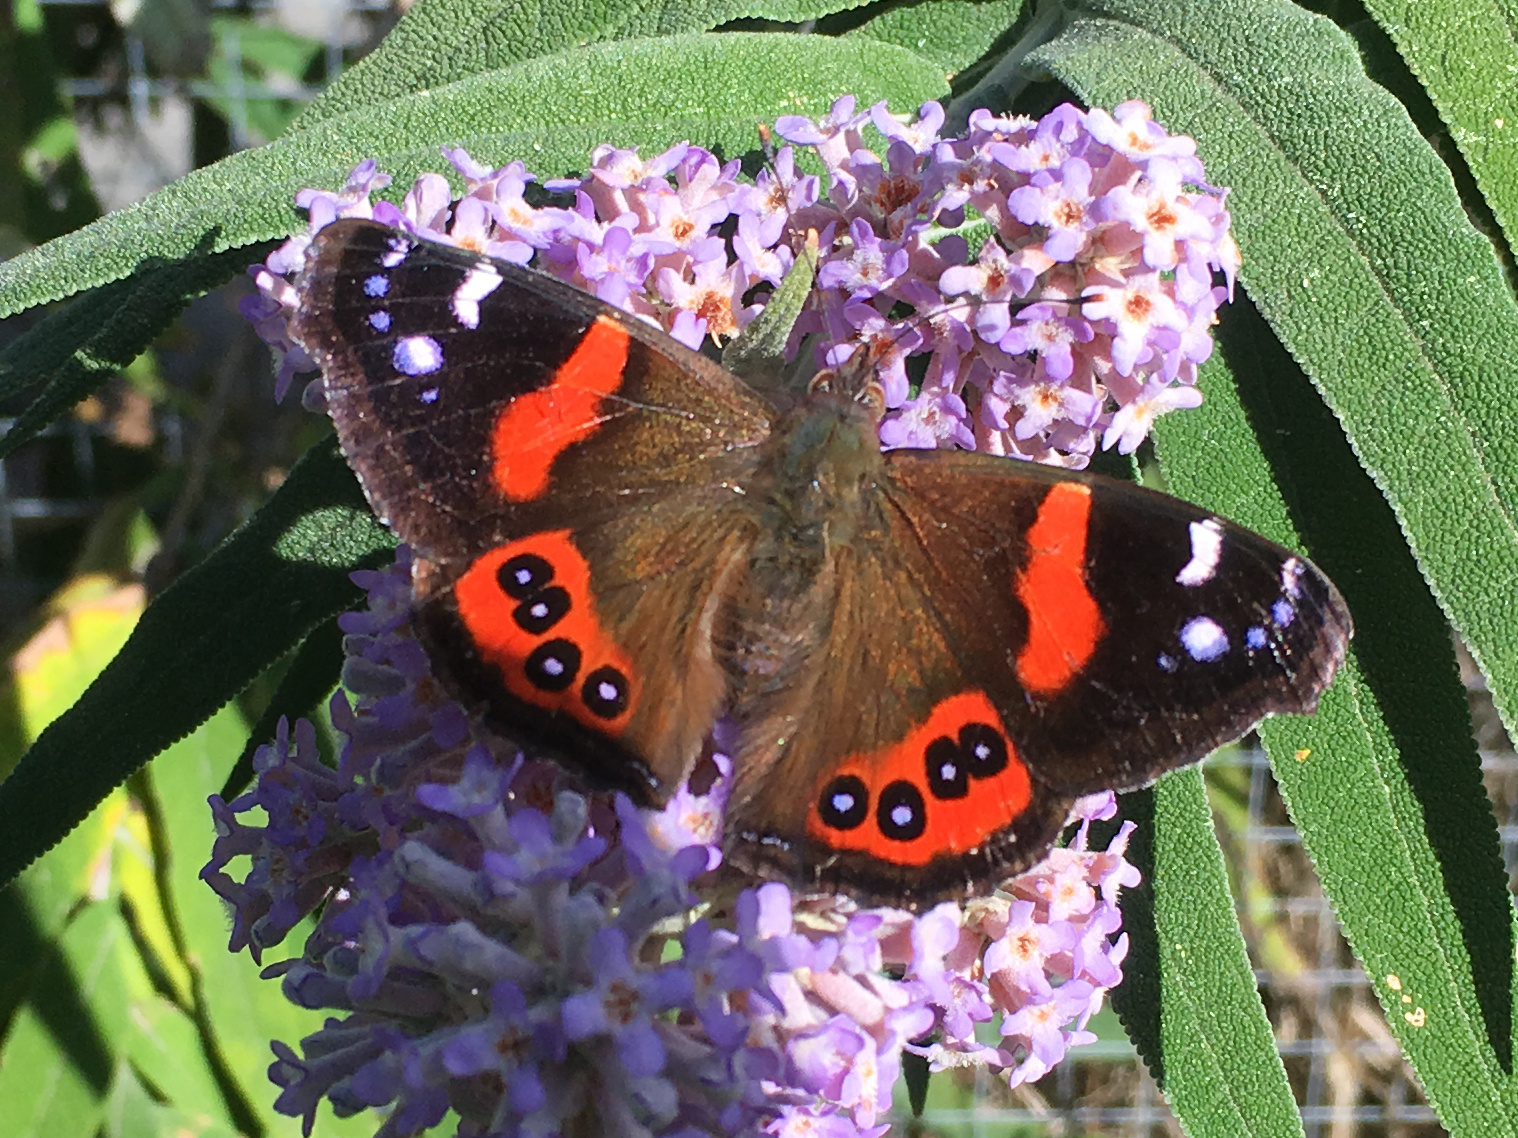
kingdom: Animalia
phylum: Arthropoda
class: Insecta
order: Lepidoptera
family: Nymphalidae
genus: Vanessa
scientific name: Vanessa gonerilla
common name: New zealand red admiral
